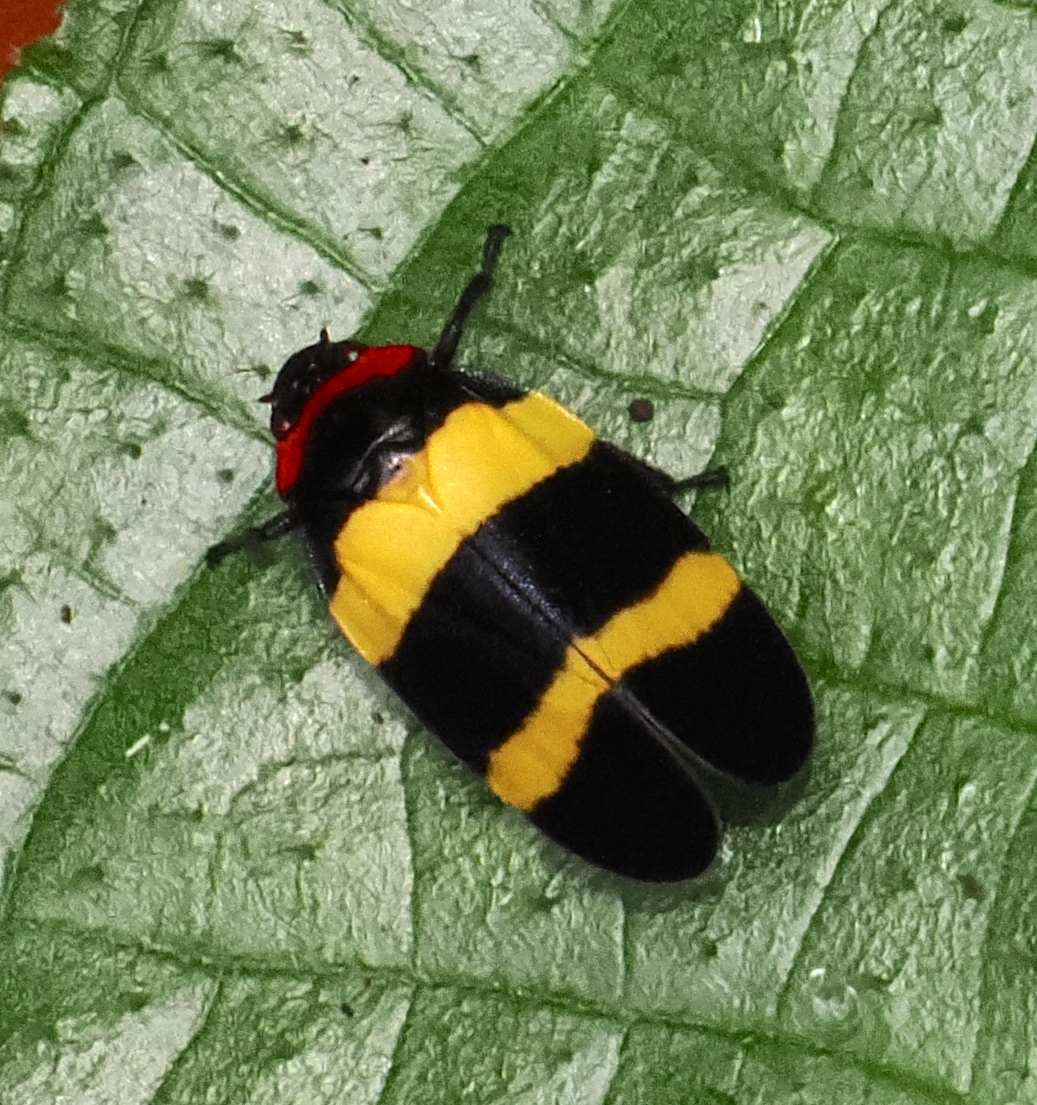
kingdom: Animalia
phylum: Arthropoda
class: Insecta
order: Hemiptera
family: Cercopidae
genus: Sphenorhina
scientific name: Sphenorhina nigricephala
